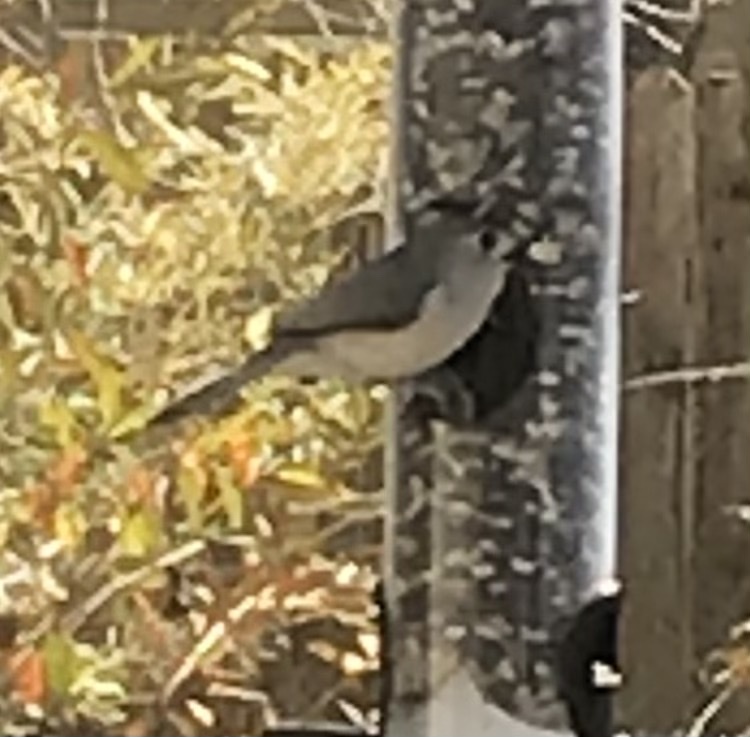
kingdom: Animalia
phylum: Chordata
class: Aves
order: Passeriformes
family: Paridae
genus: Baeolophus
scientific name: Baeolophus atricristatus
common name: Black-crested titmouse
